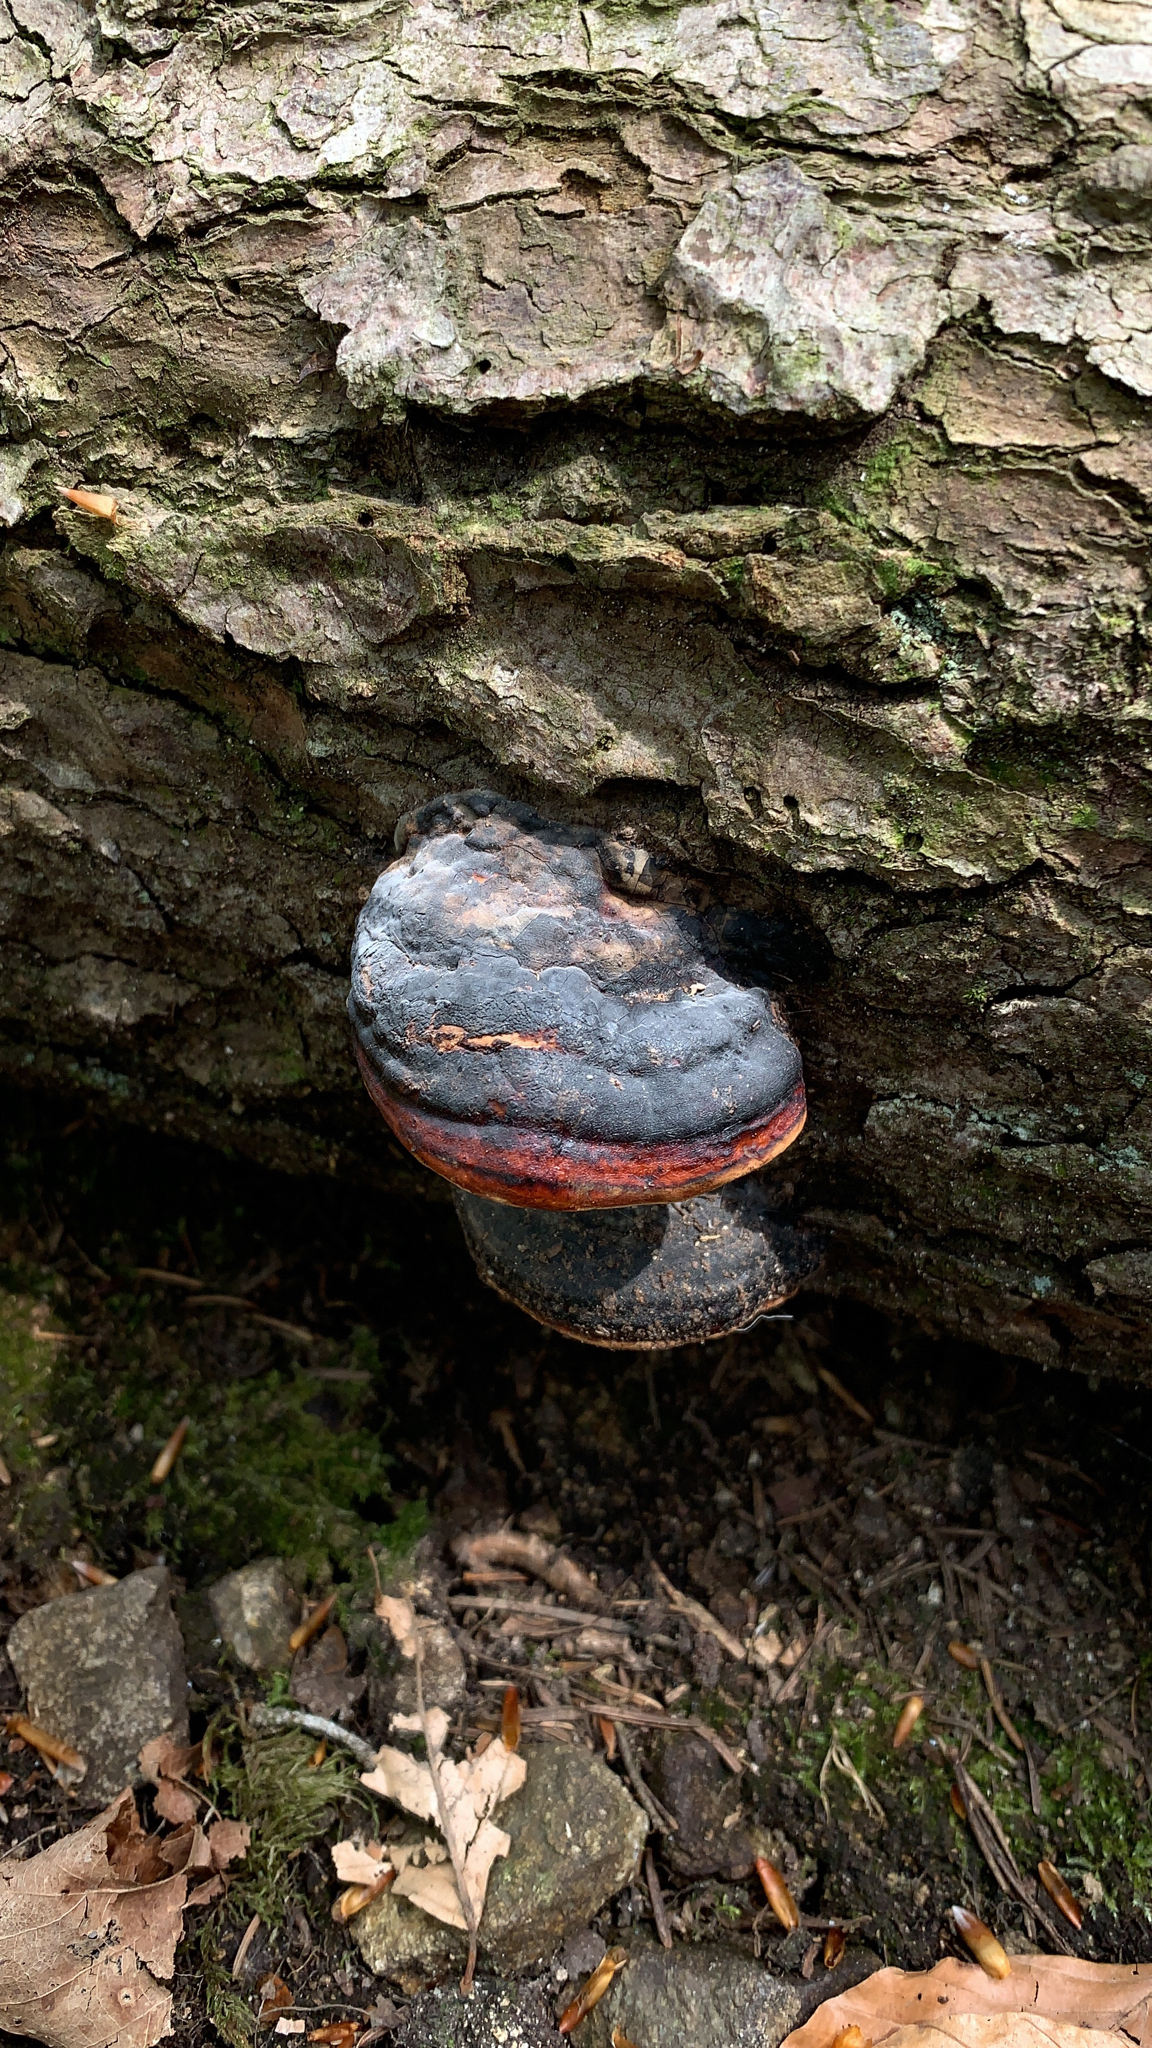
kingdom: Fungi
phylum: Basidiomycota
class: Agaricomycetes
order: Polyporales
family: Fomitopsidaceae
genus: Fomitopsis
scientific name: Fomitopsis pinicola
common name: Red-belted bracket
